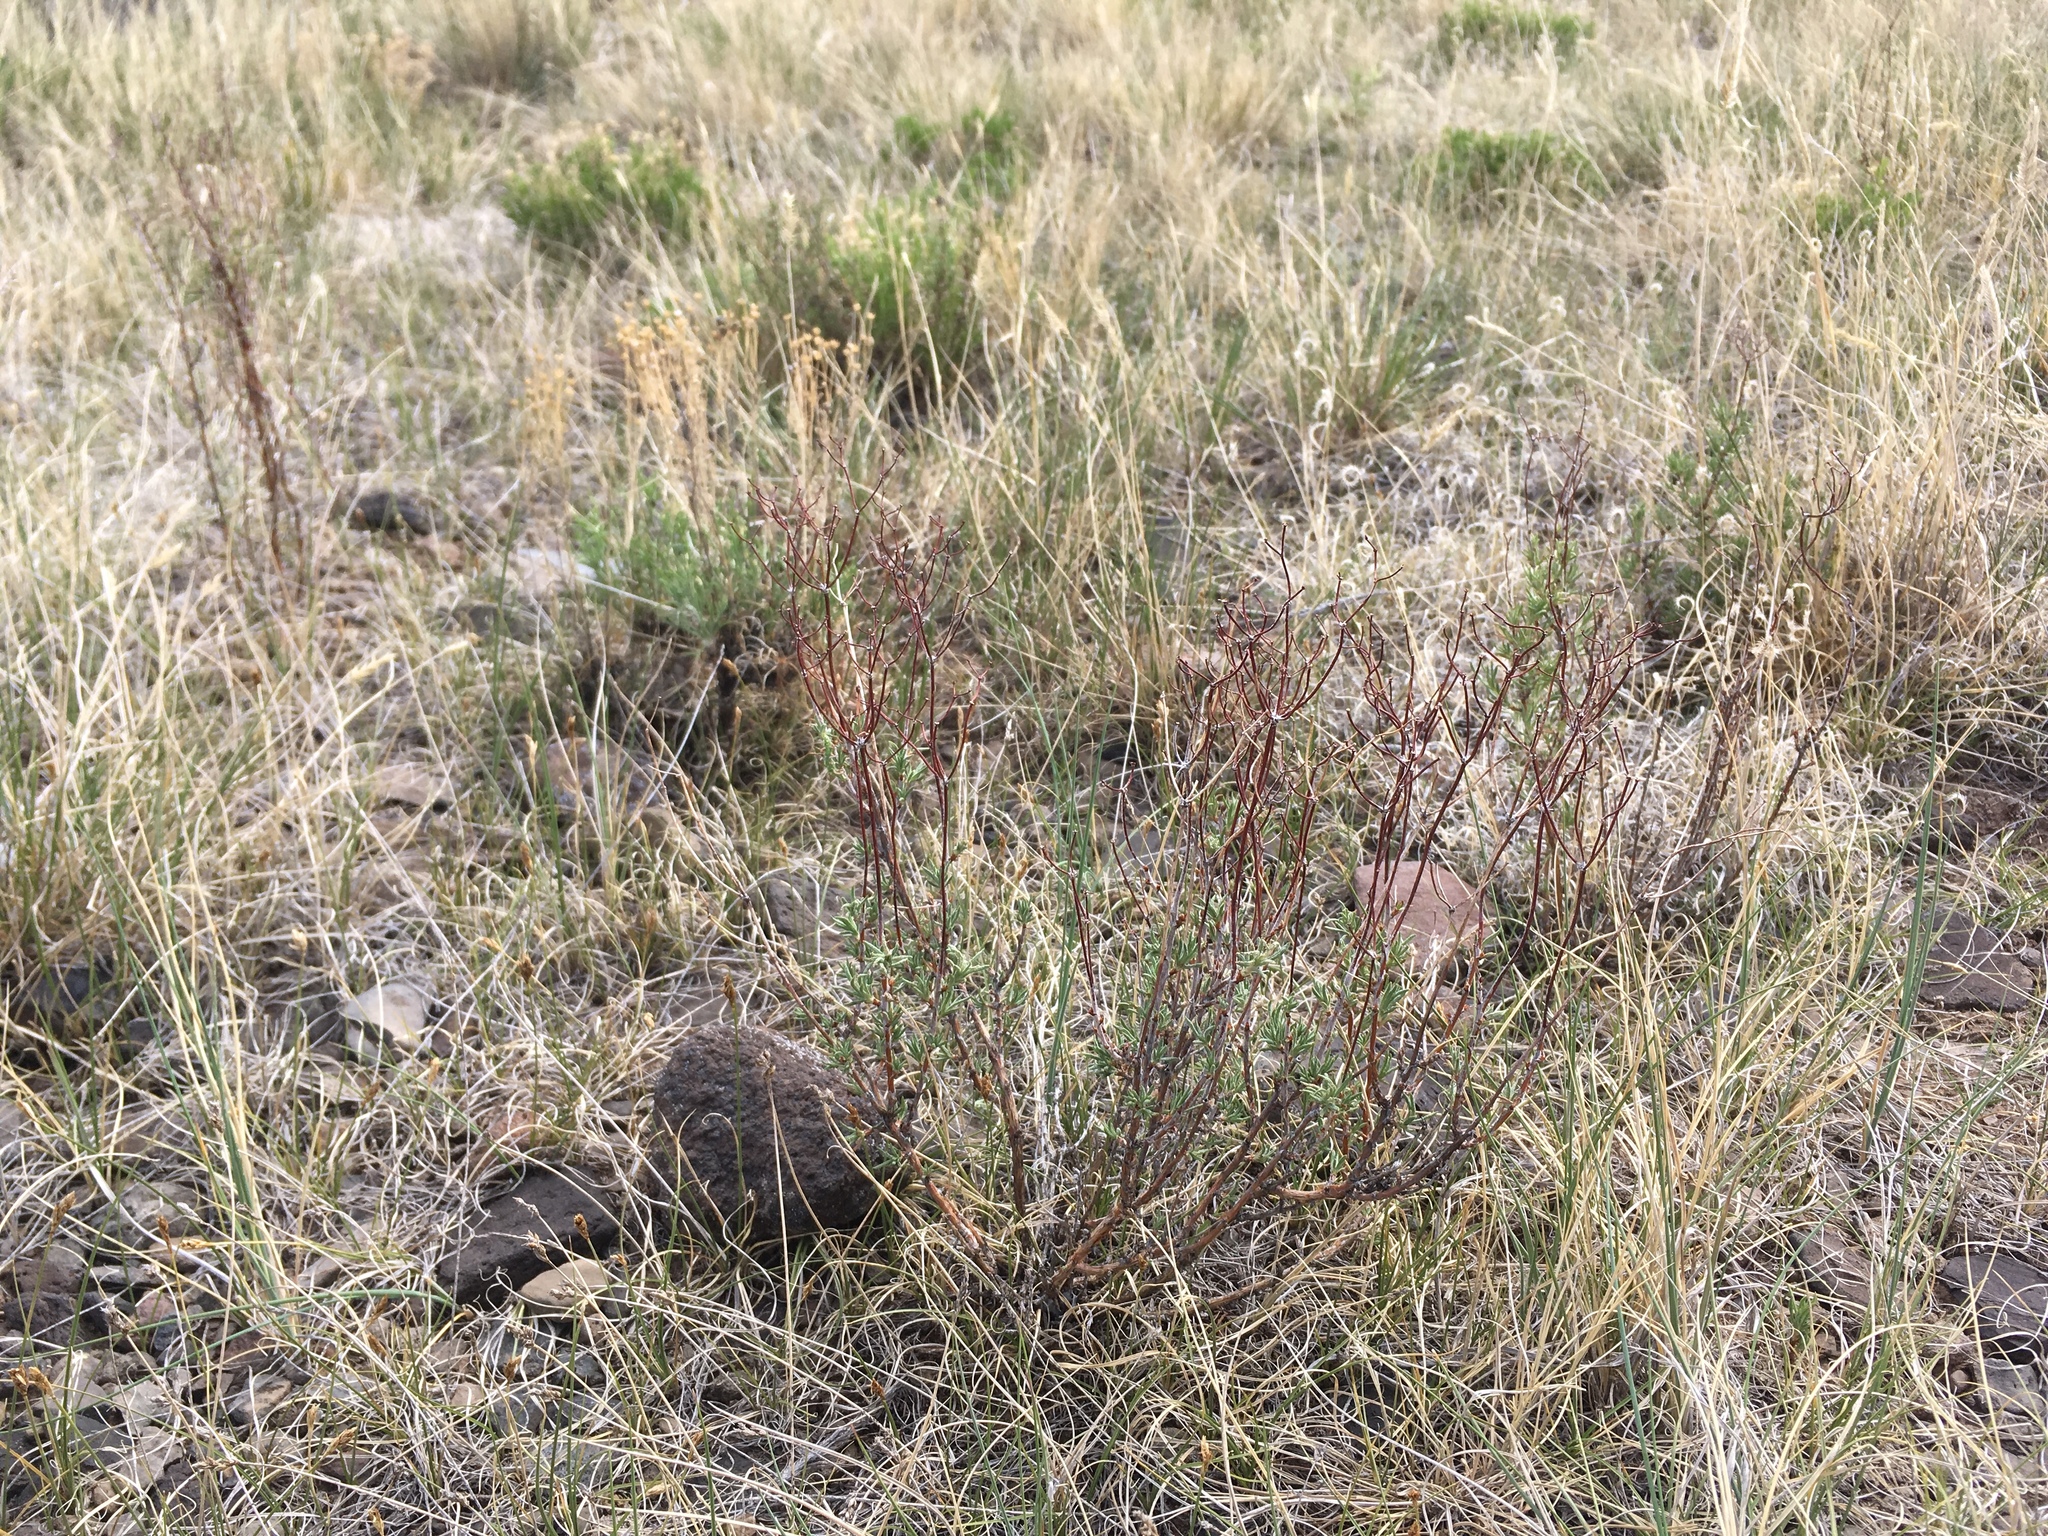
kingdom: Plantae
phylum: Tracheophyta
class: Magnoliopsida
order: Caryophyllales
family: Polygonaceae
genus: Eriogonum
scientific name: Eriogonum microtheca
